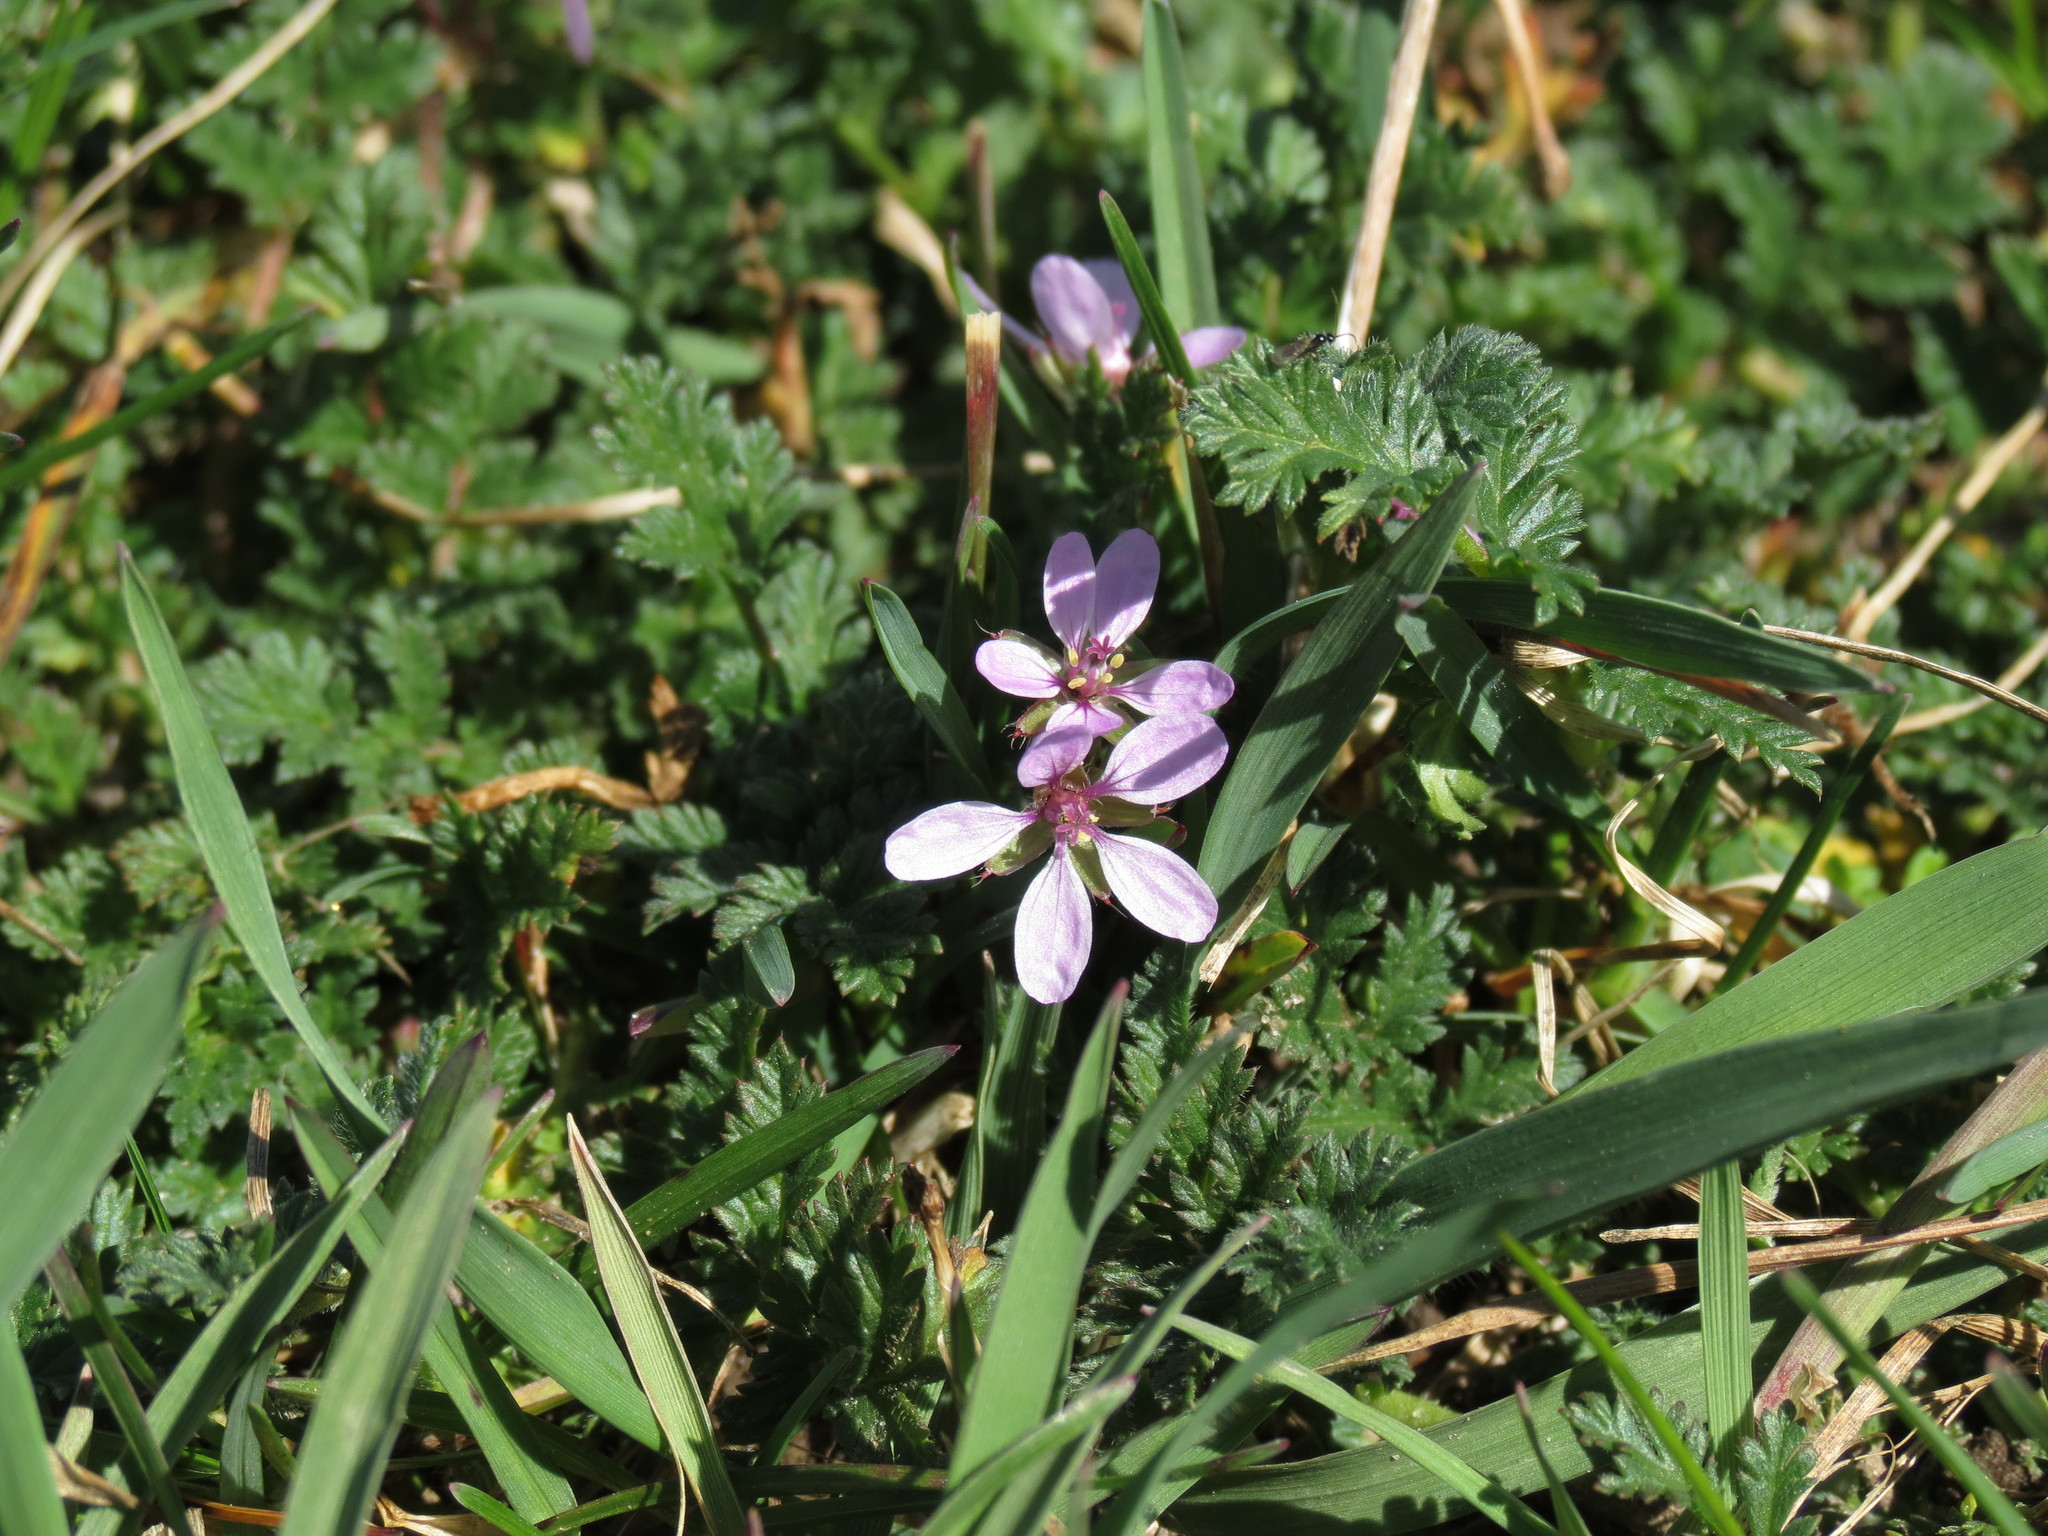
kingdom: Plantae
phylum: Tracheophyta
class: Magnoliopsida
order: Geraniales
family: Geraniaceae
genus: Erodium
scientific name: Erodium cicutarium
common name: Common stork's-bill
